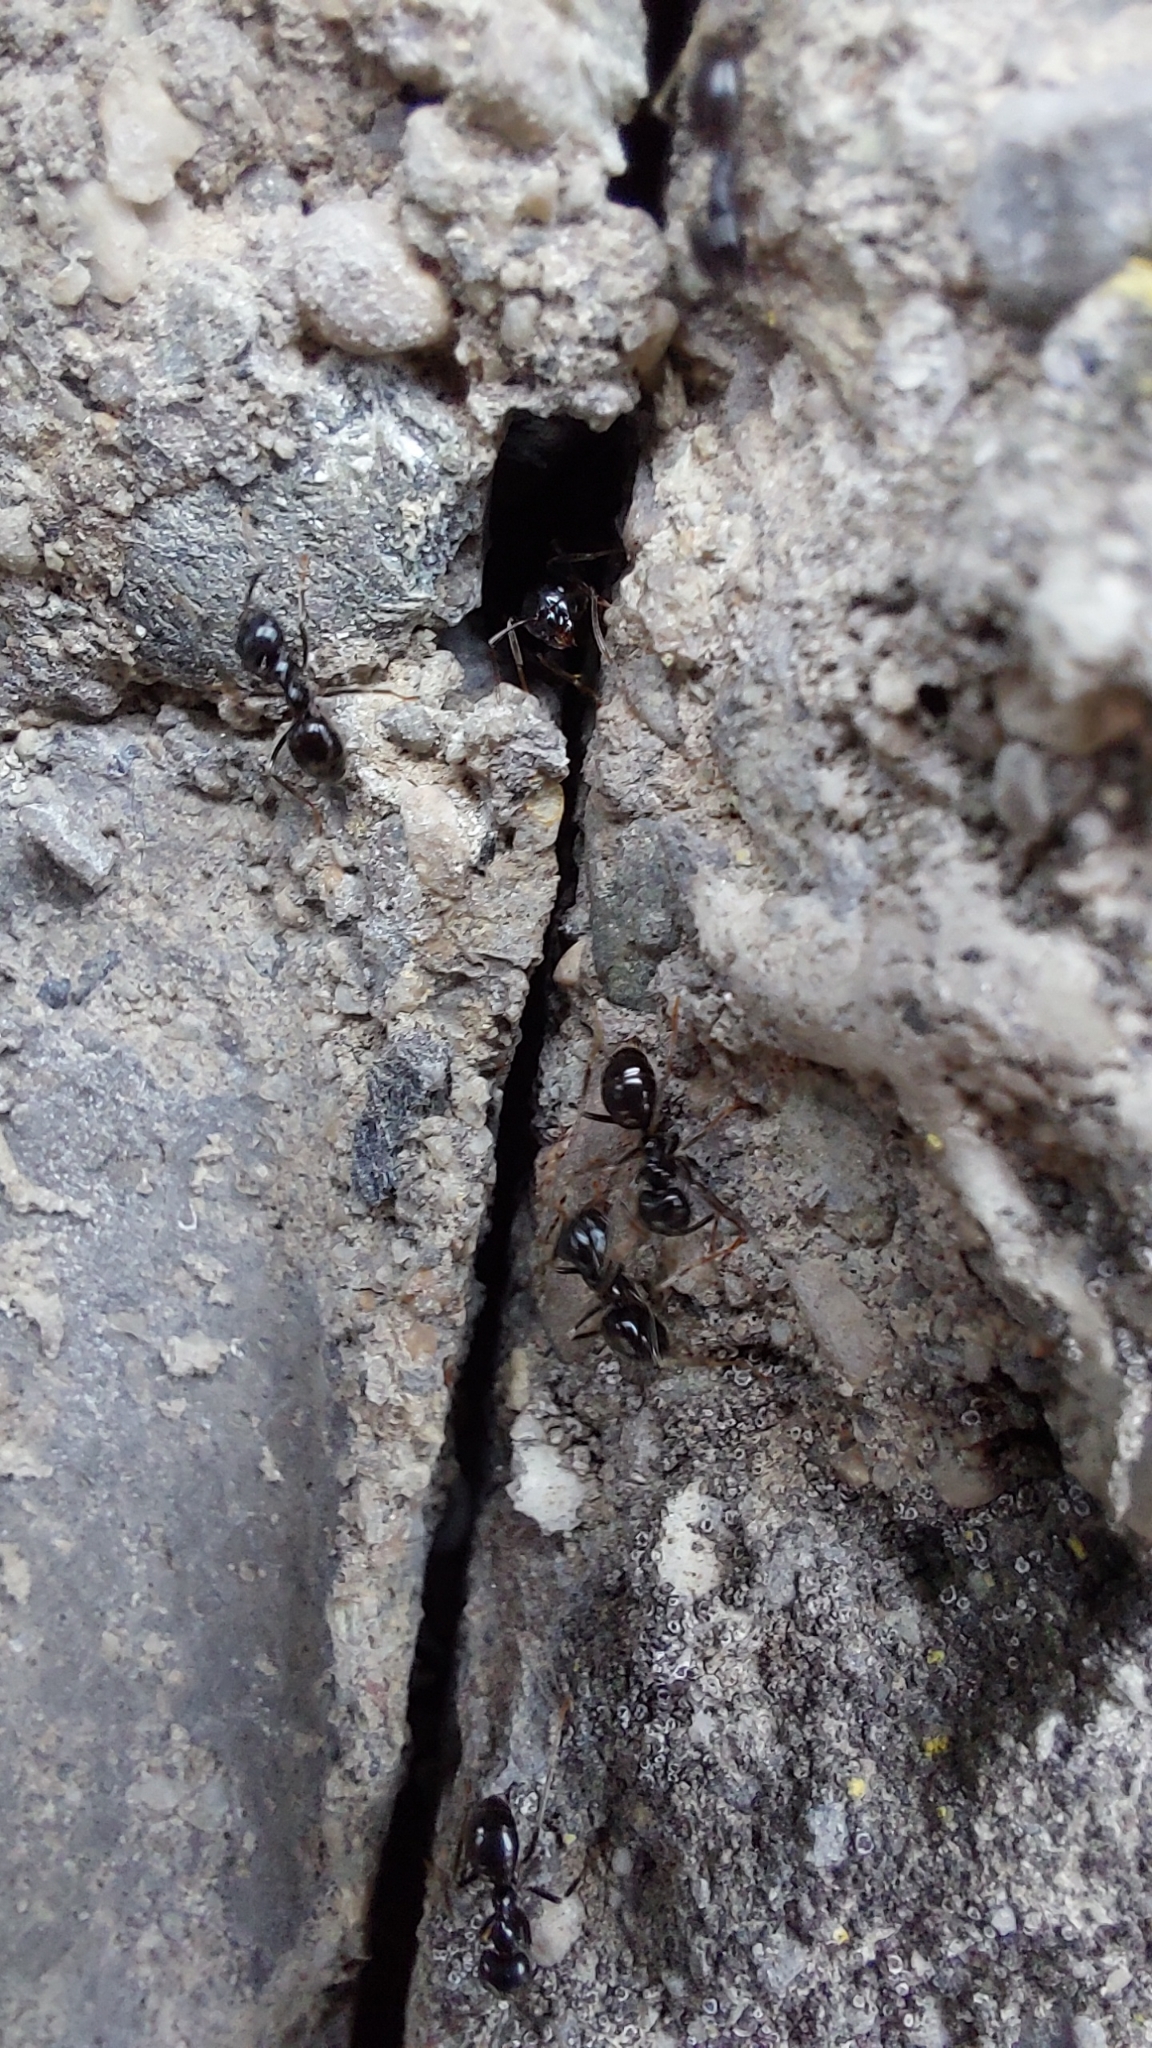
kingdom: Animalia
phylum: Arthropoda
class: Insecta
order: Hymenoptera
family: Formicidae
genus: Lasius
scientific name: Lasius fuliginosus
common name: Jet ant
